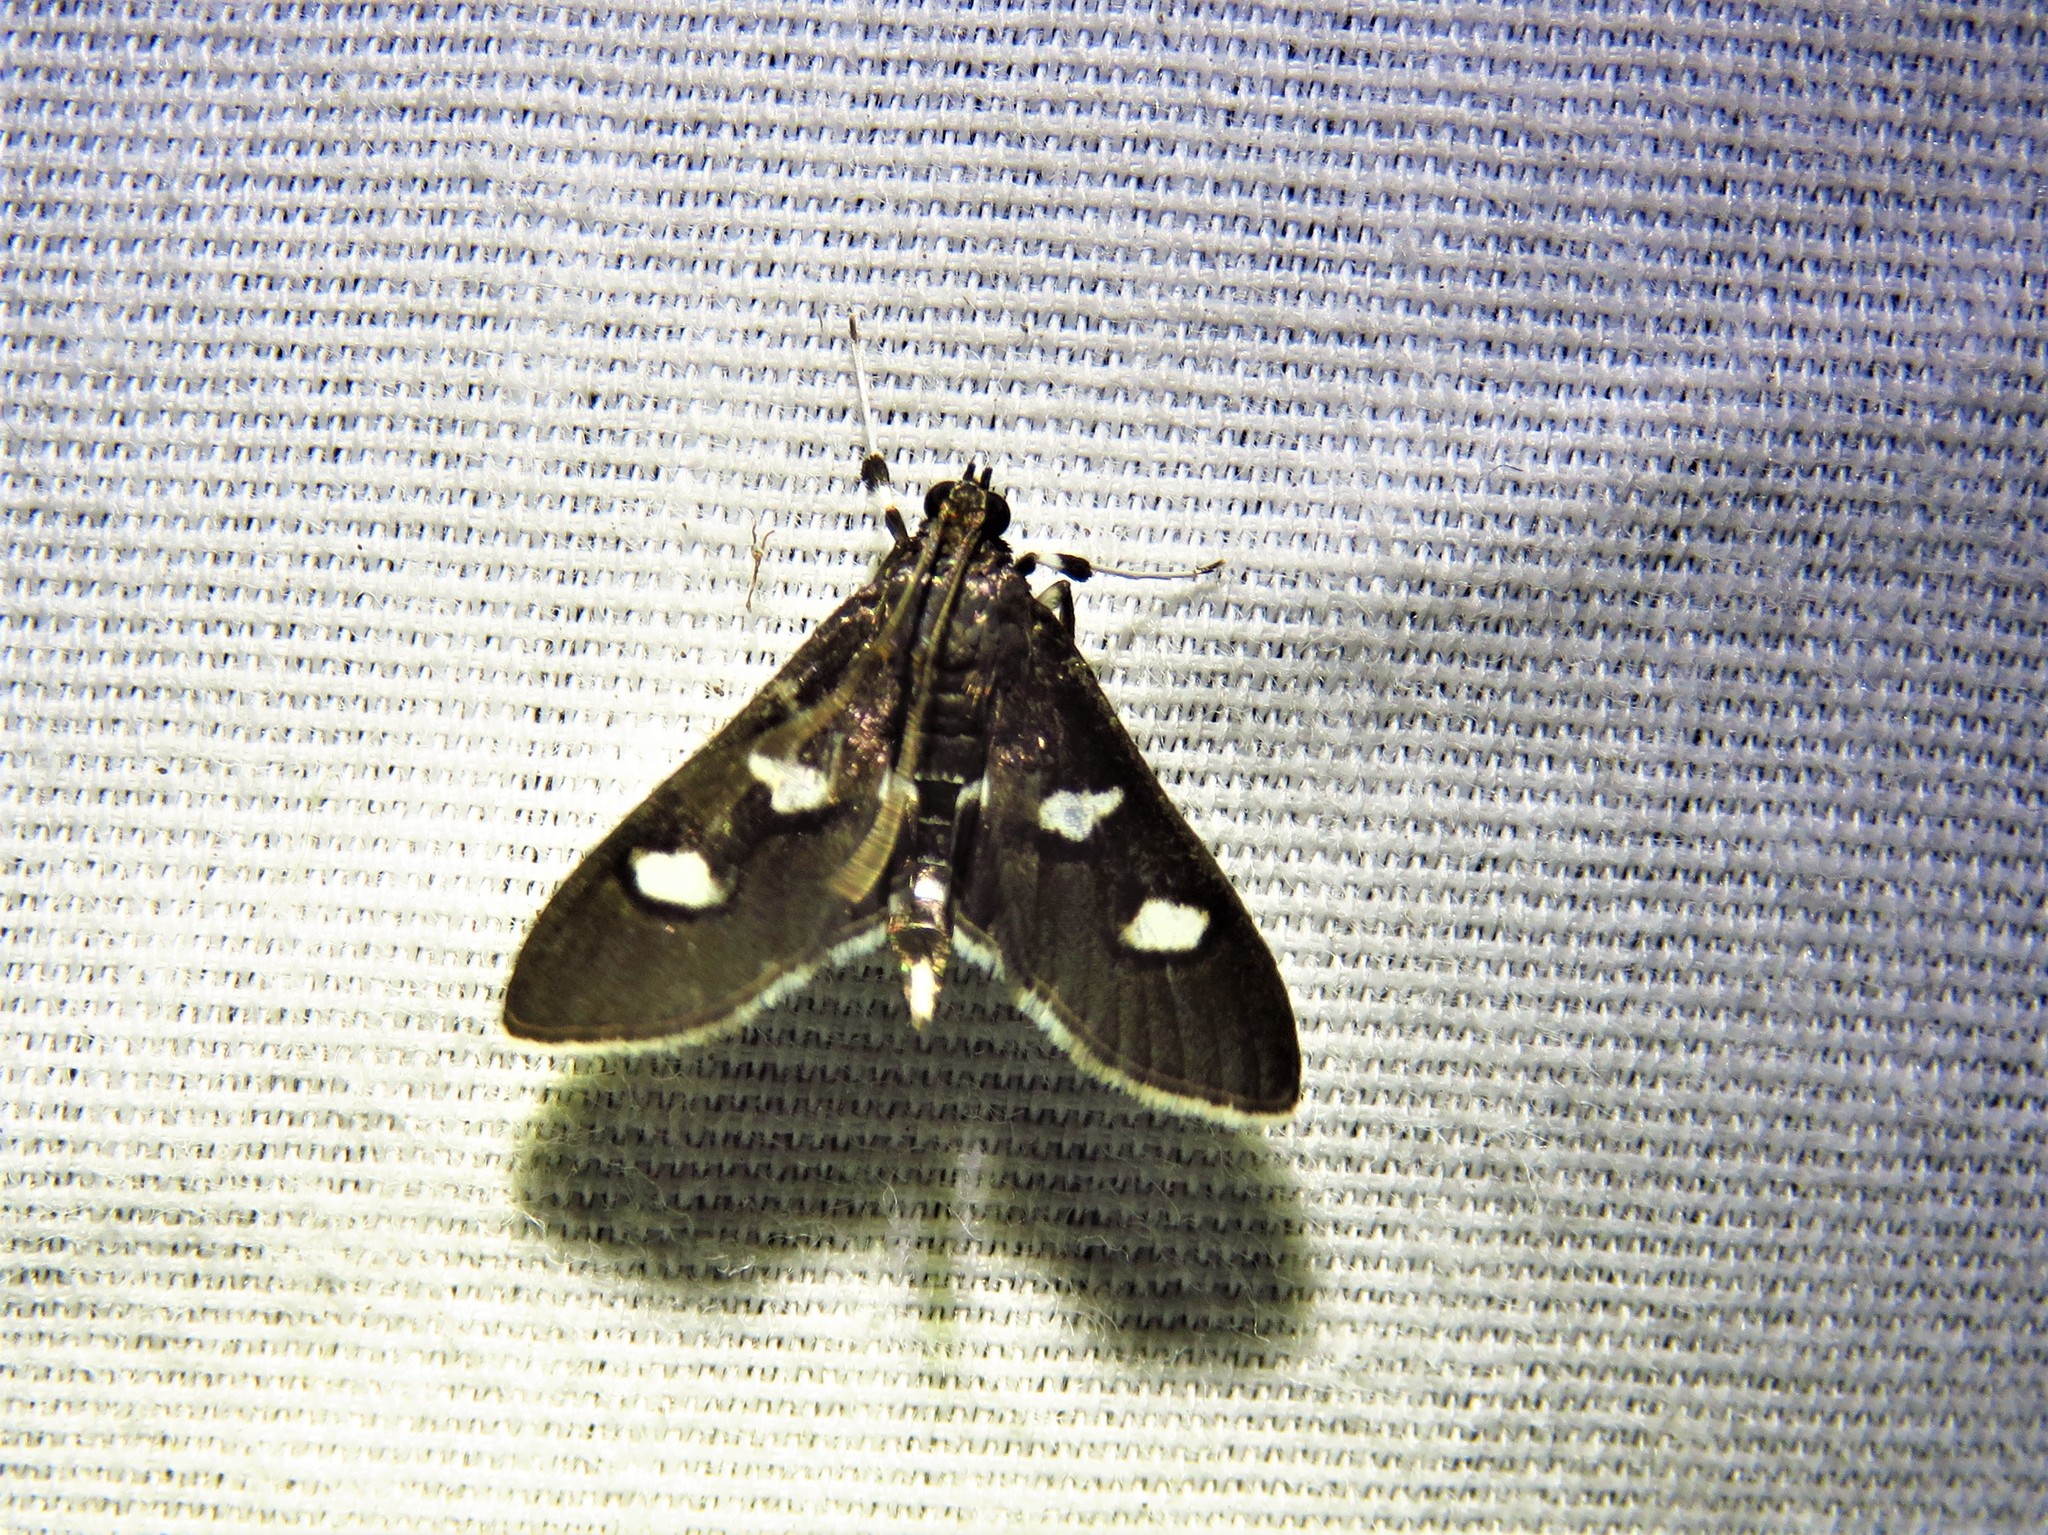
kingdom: Animalia
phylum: Arthropoda
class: Insecta
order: Lepidoptera
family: Crambidae
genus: Desmia
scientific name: Desmia funeralis
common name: Grape leaf folder moth
